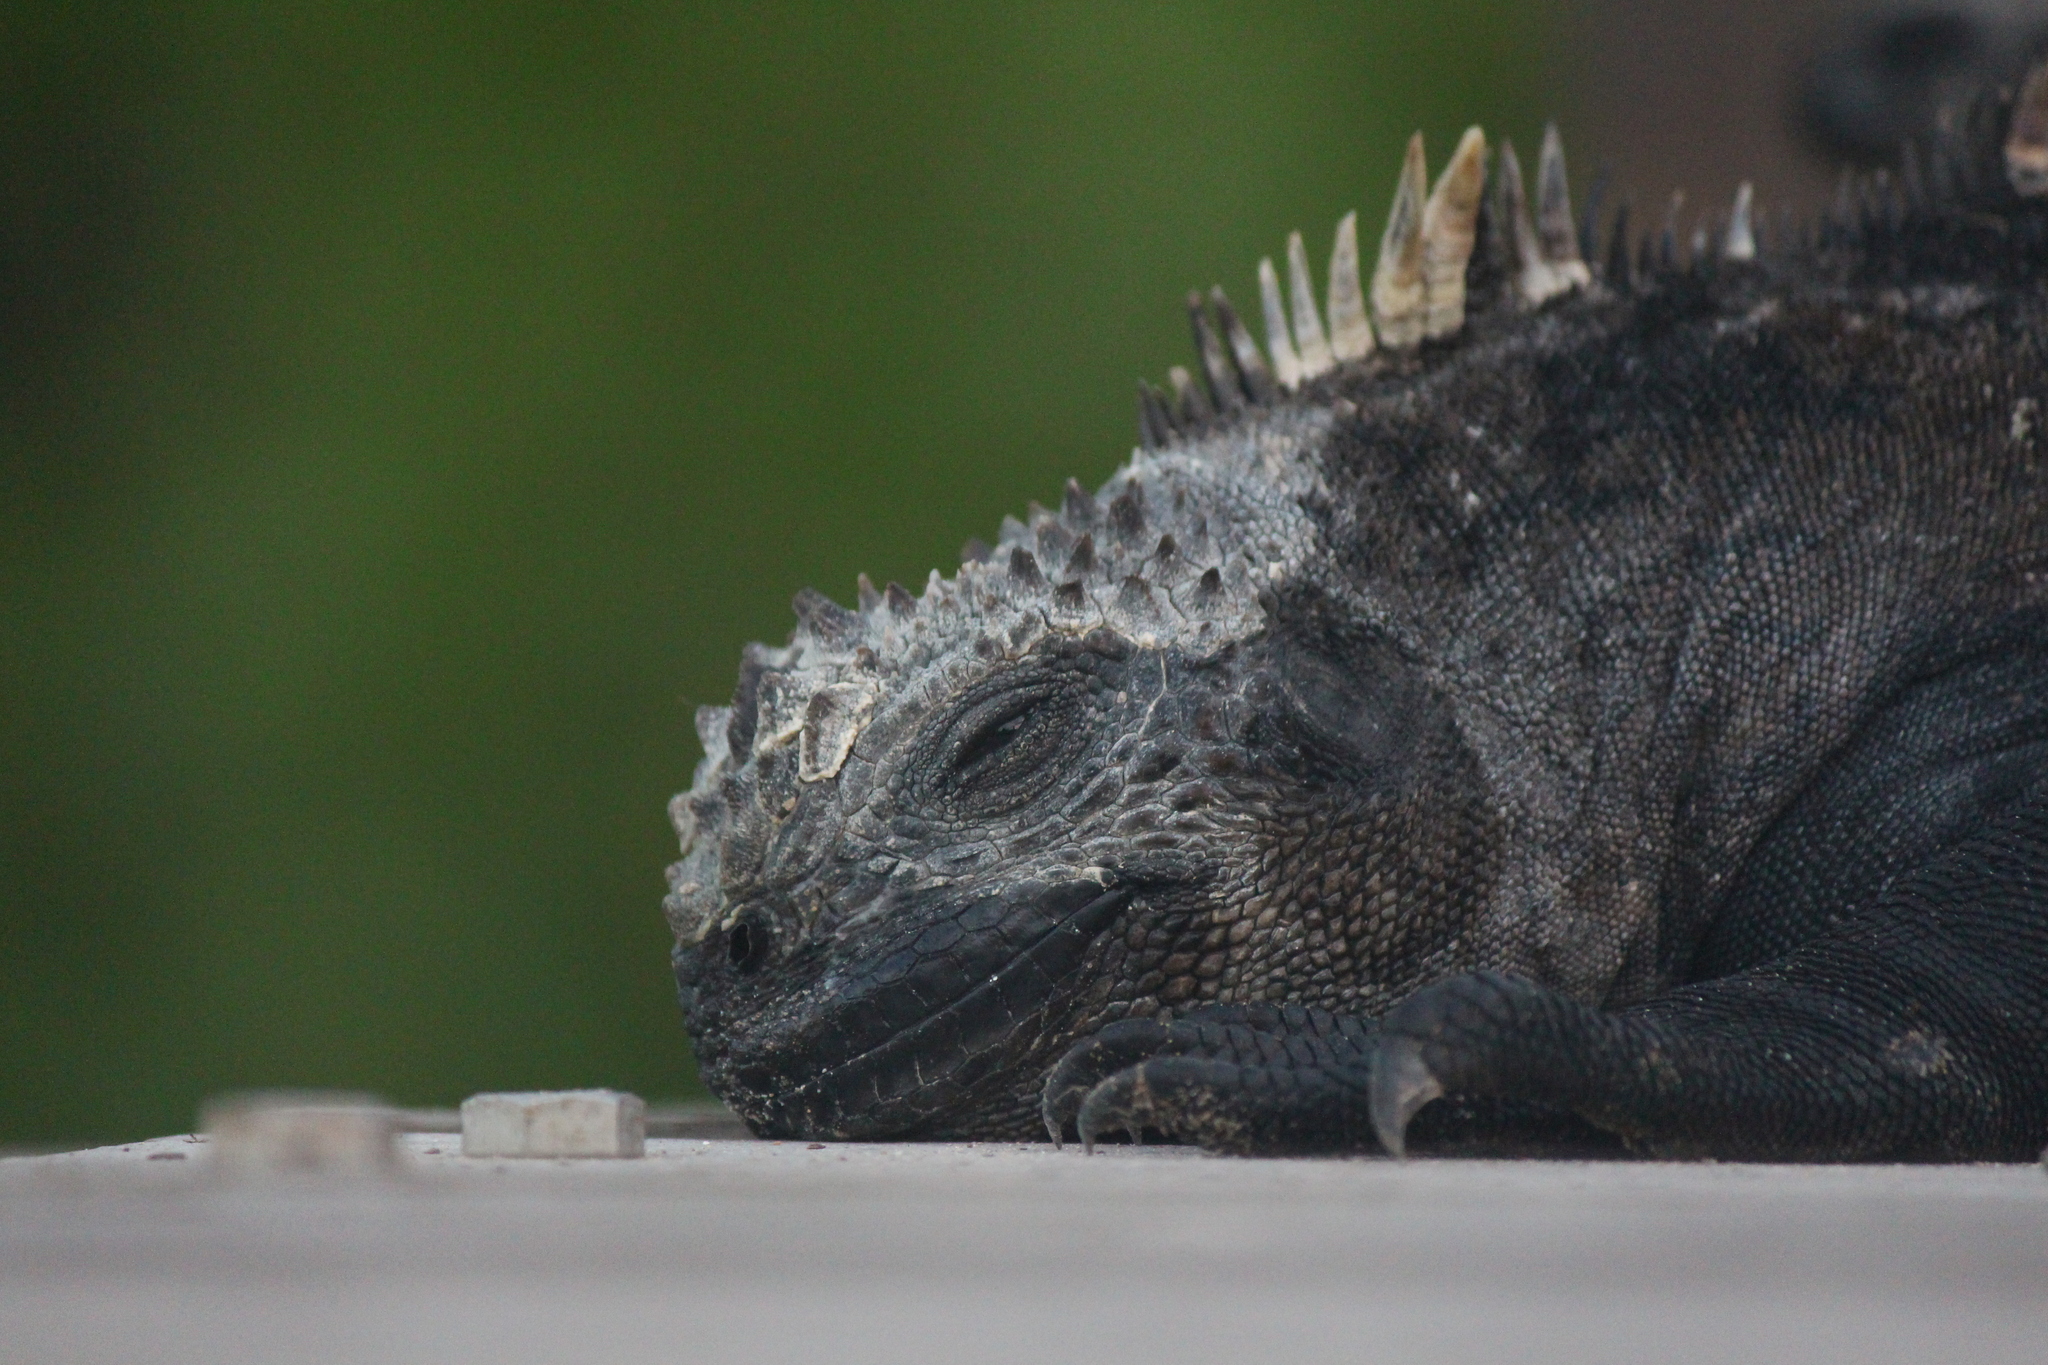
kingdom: Animalia
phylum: Chordata
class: Squamata
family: Iguanidae
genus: Amblyrhynchus
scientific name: Amblyrhynchus cristatus
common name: Marine iguana
